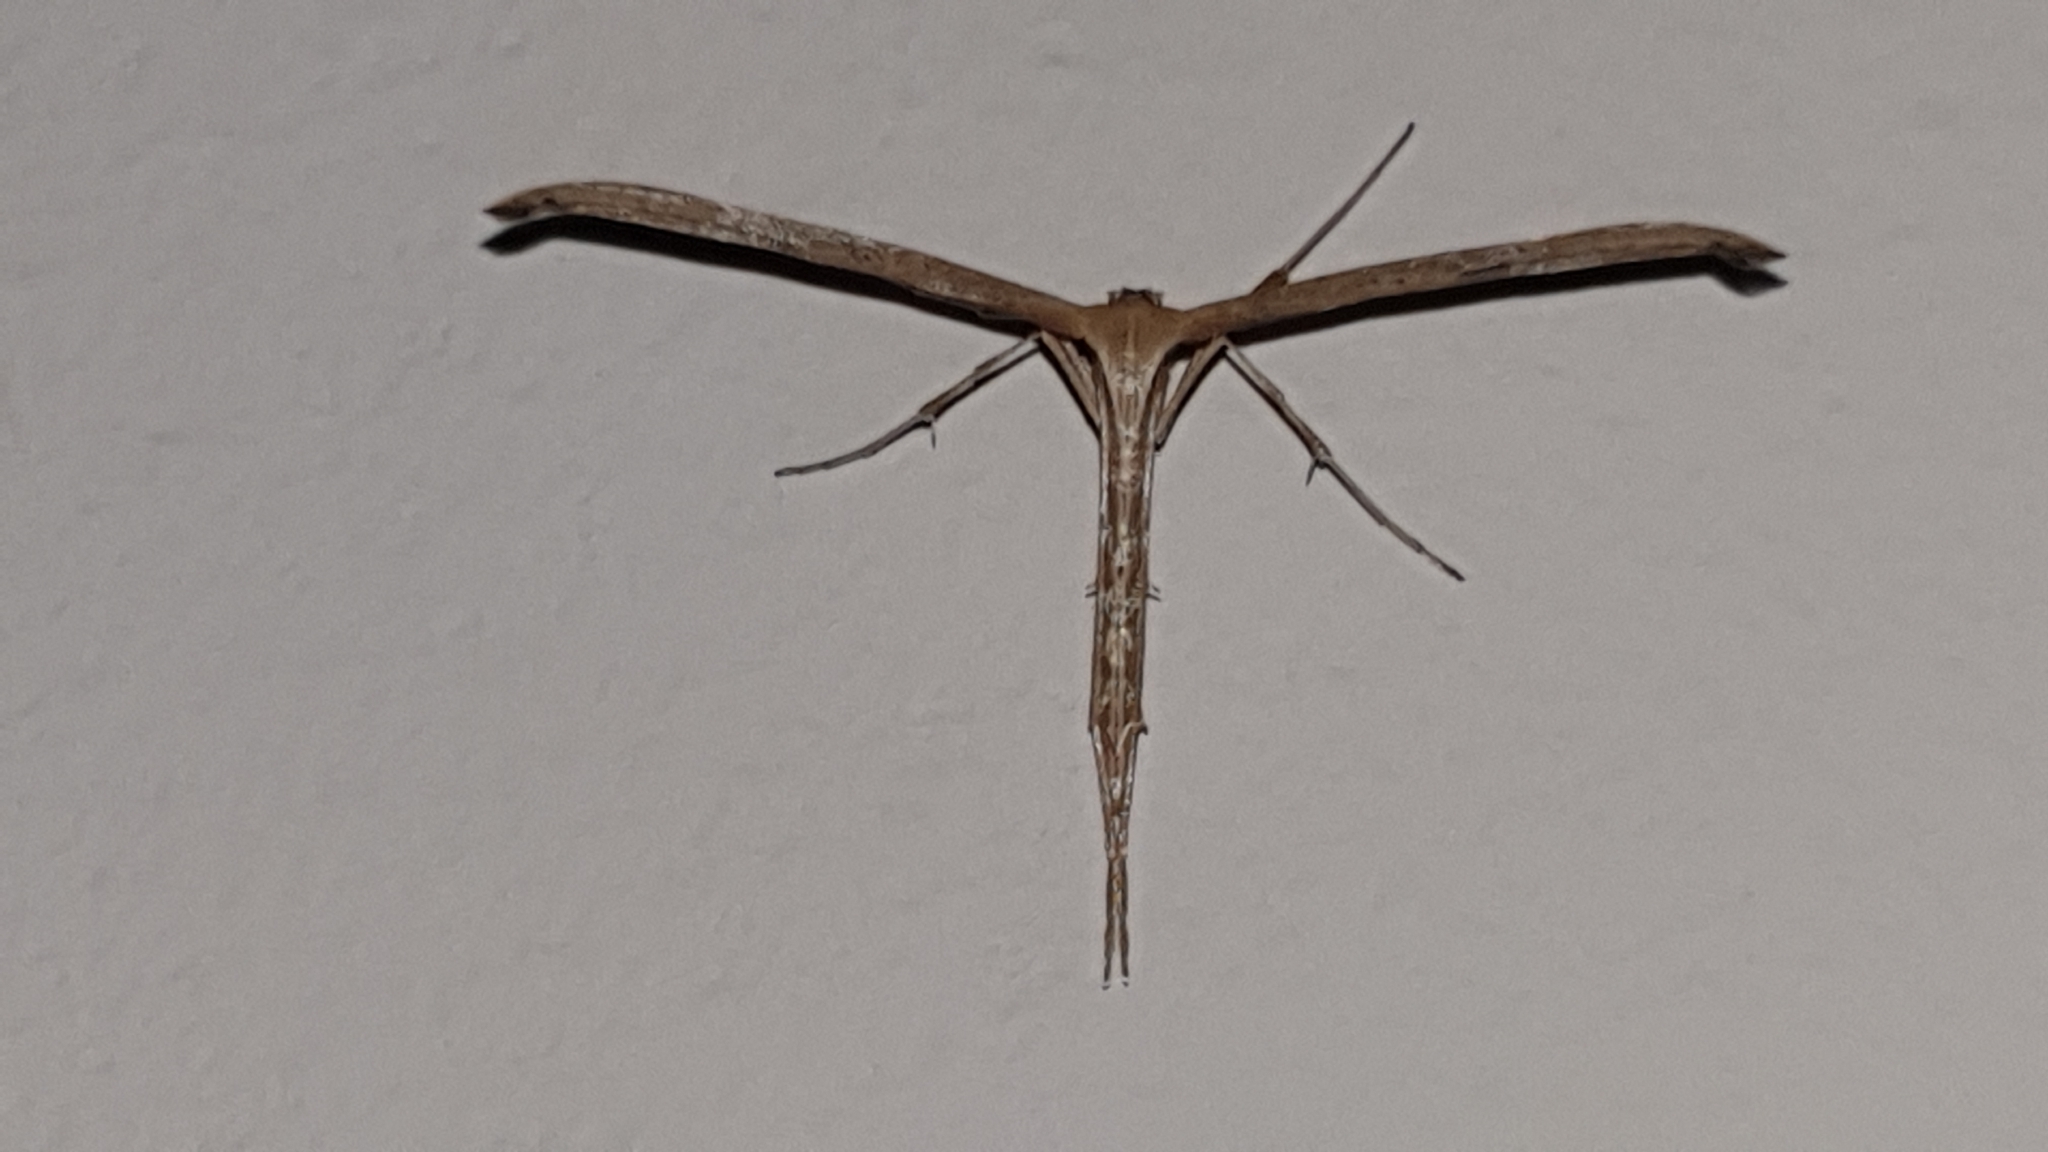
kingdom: Animalia
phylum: Arthropoda
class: Insecta
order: Lepidoptera
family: Pterophoridae
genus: Emmelina
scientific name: Emmelina monodactyla
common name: Common plume
